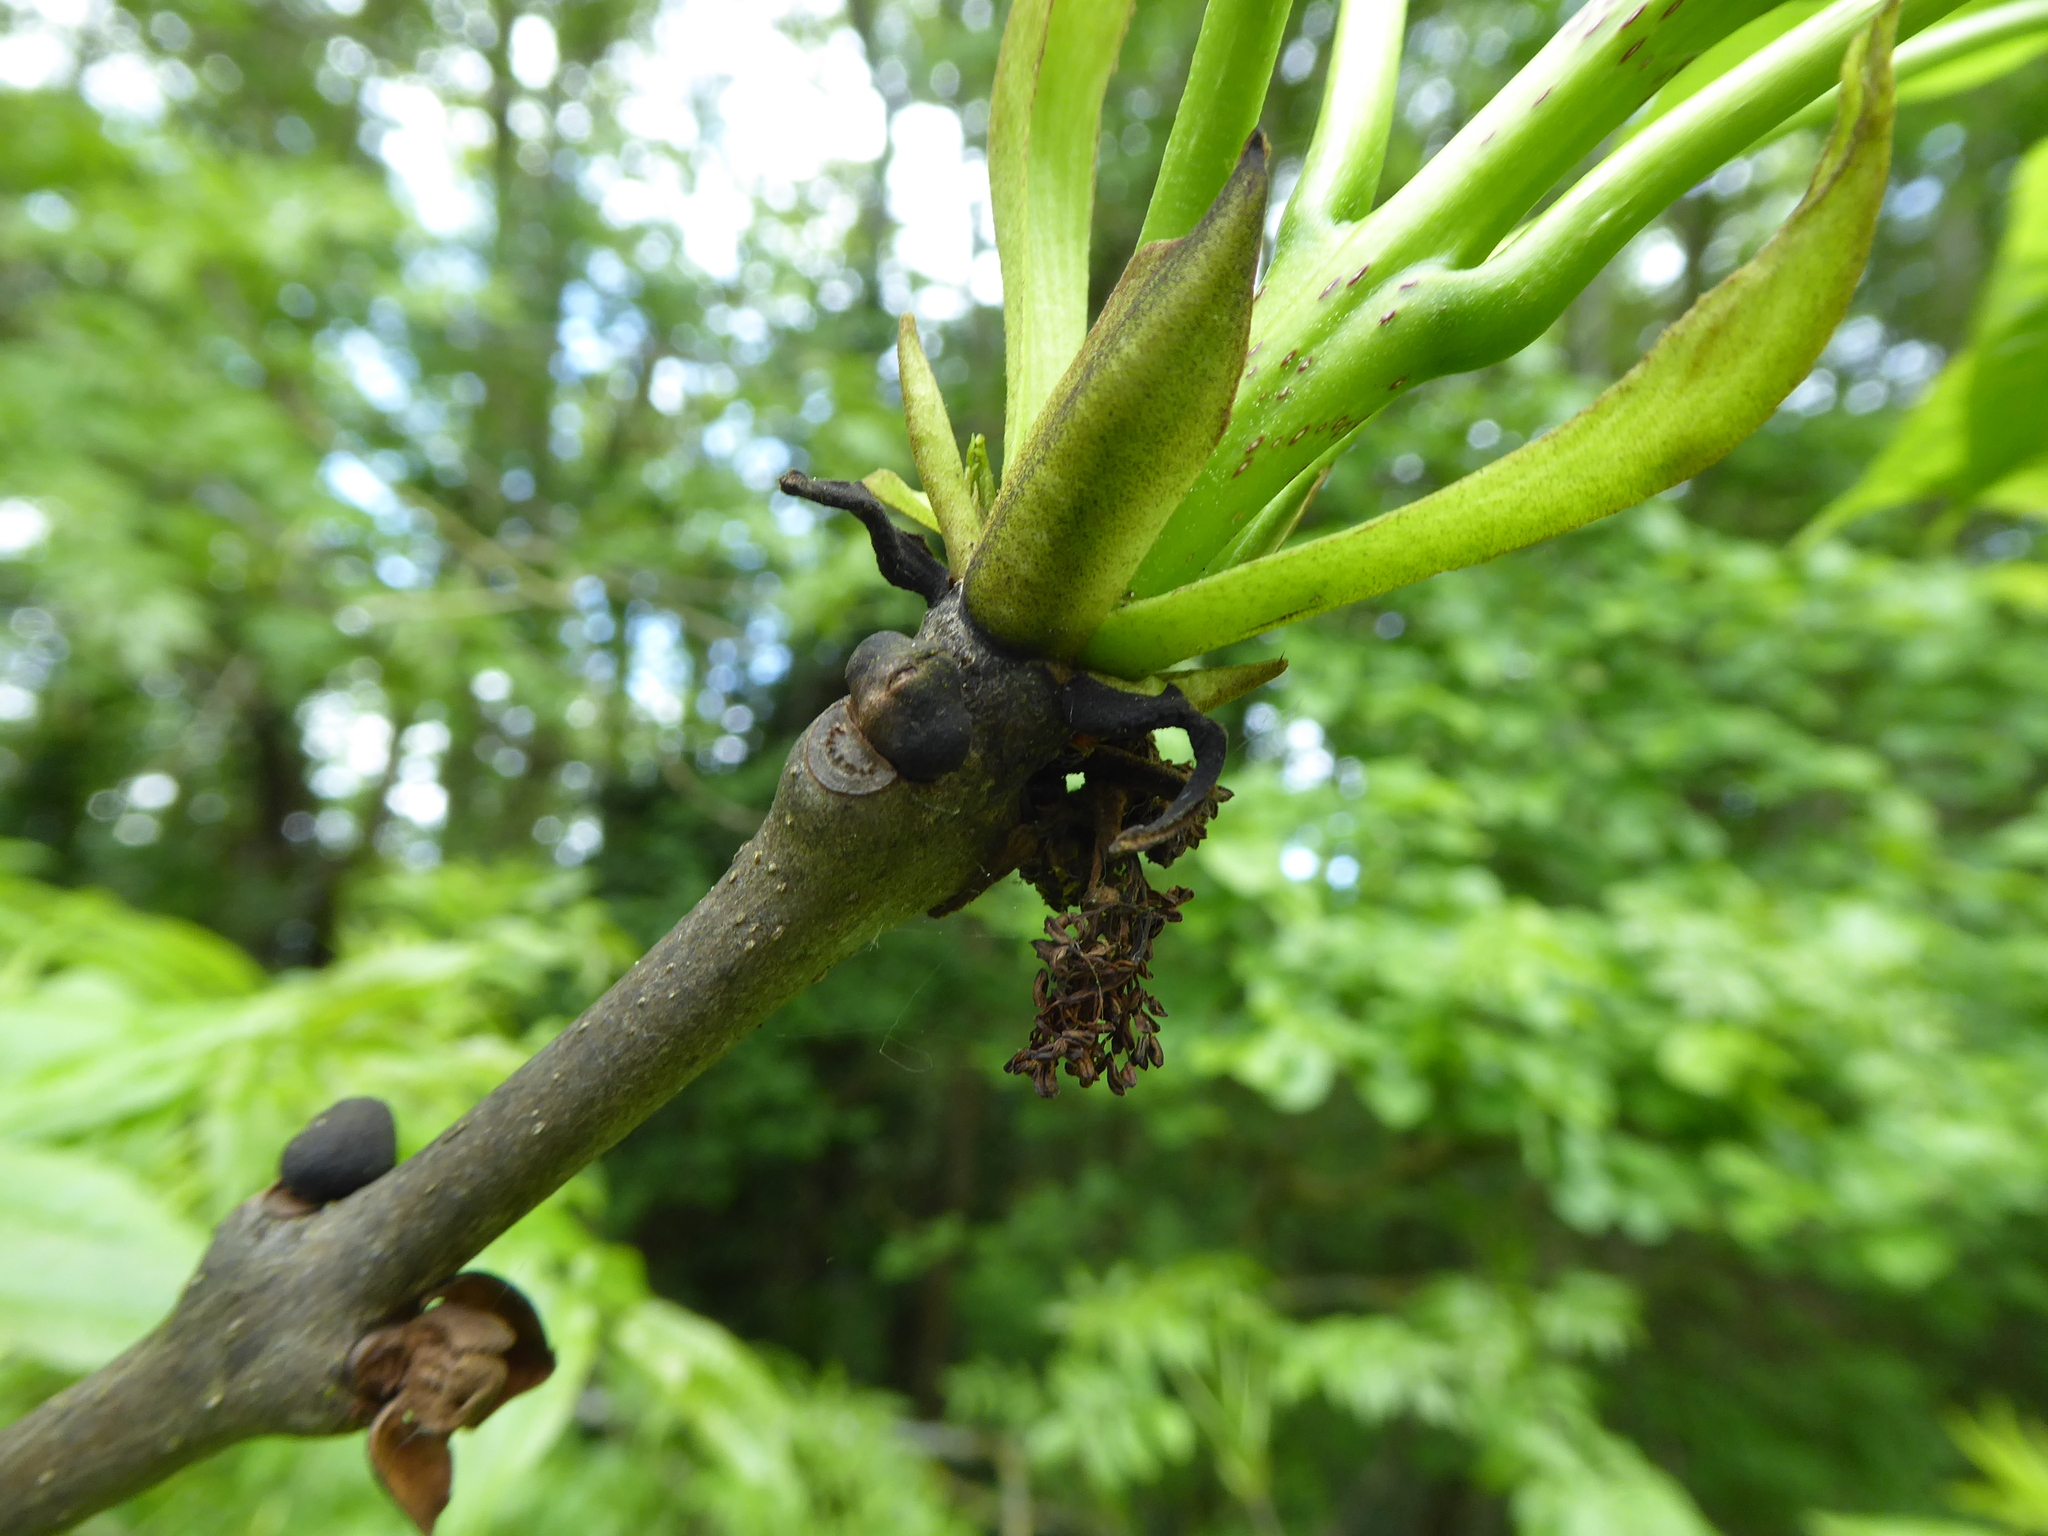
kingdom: Plantae
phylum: Tracheophyta
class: Magnoliopsida
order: Lamiales
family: Oleaceae
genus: Fraxinus
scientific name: Fraxinus excelsior
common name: European ash
